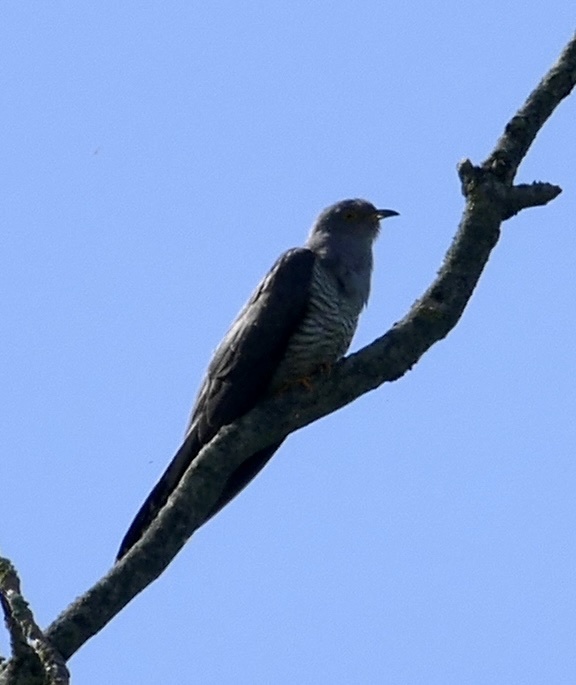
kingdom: Animalia
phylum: Chordata
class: Aves
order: Cuculiformes
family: Cuculidae
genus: Cuculus
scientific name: Cuculus canorus
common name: Common cuckoo
